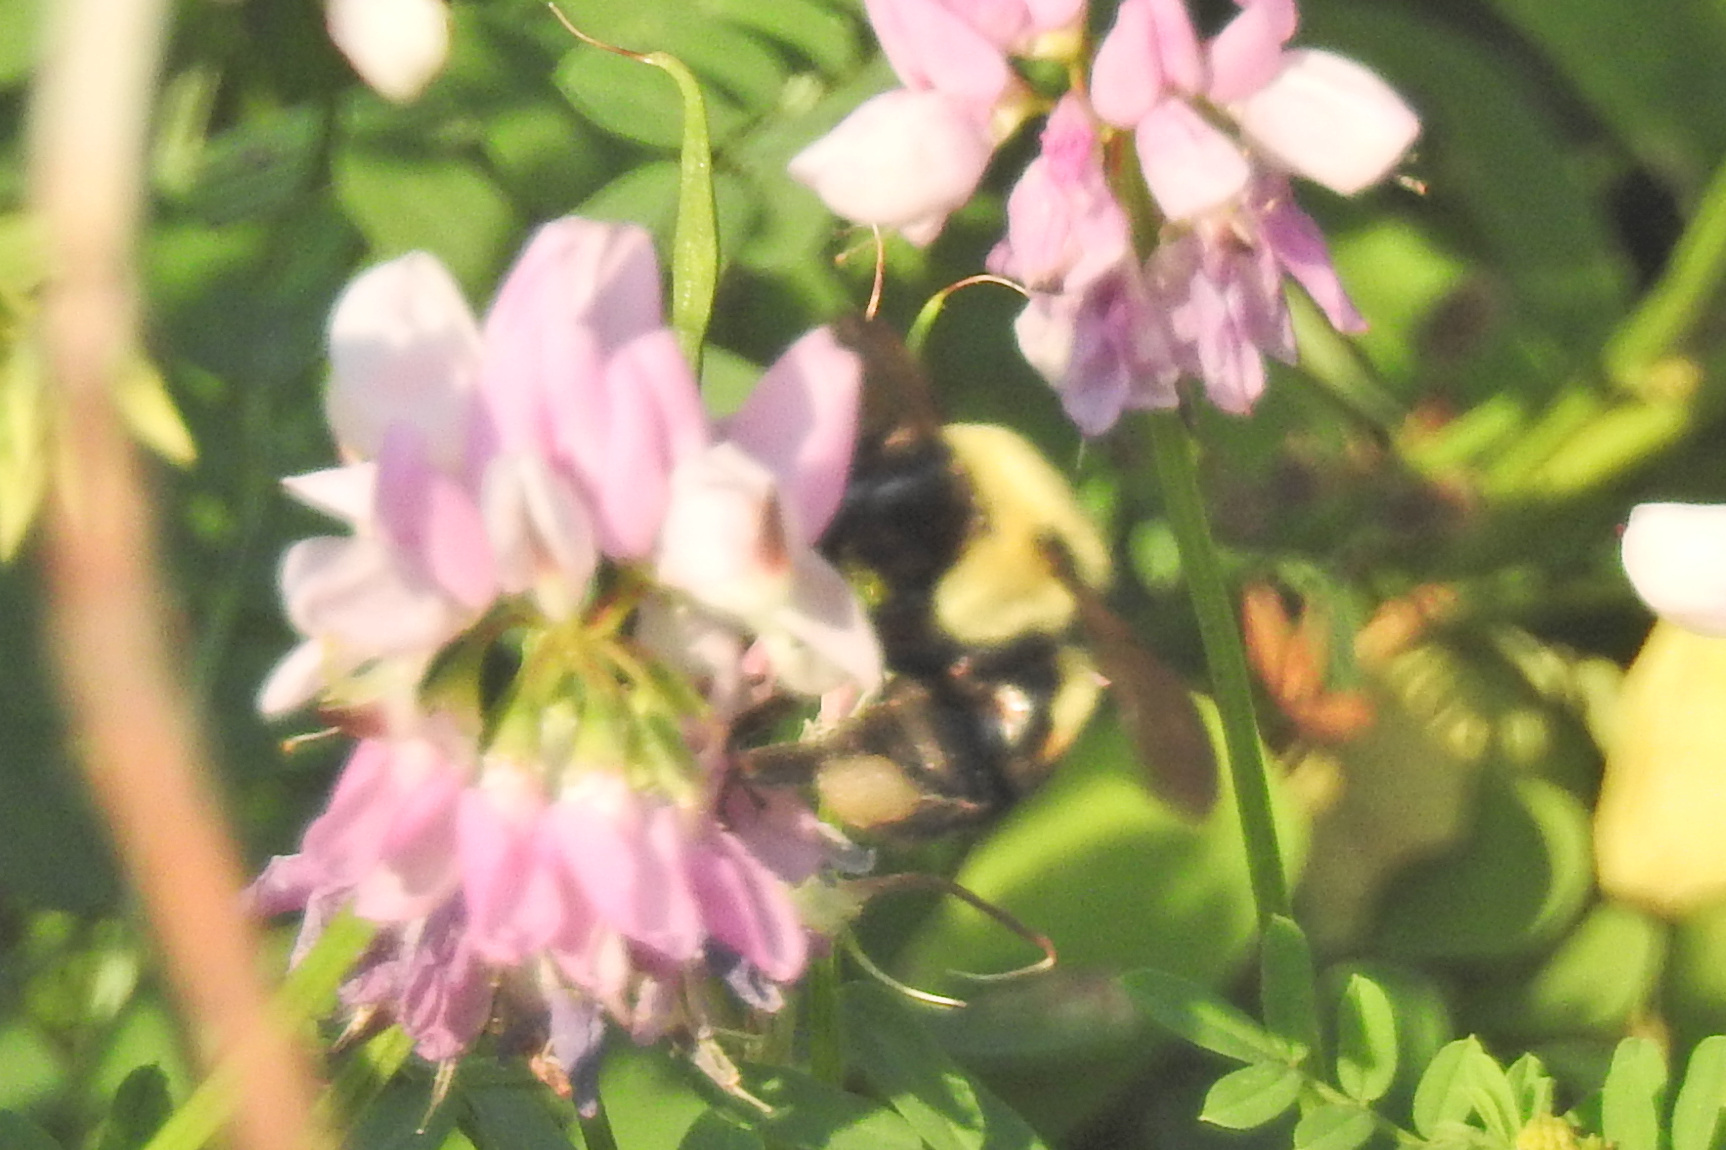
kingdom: Animalia
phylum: Arthropoda
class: Insecta
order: Hymenoptera
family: Apidae
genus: Bombus
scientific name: Bombus griseocollis
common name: Brown-belted bumble bee
